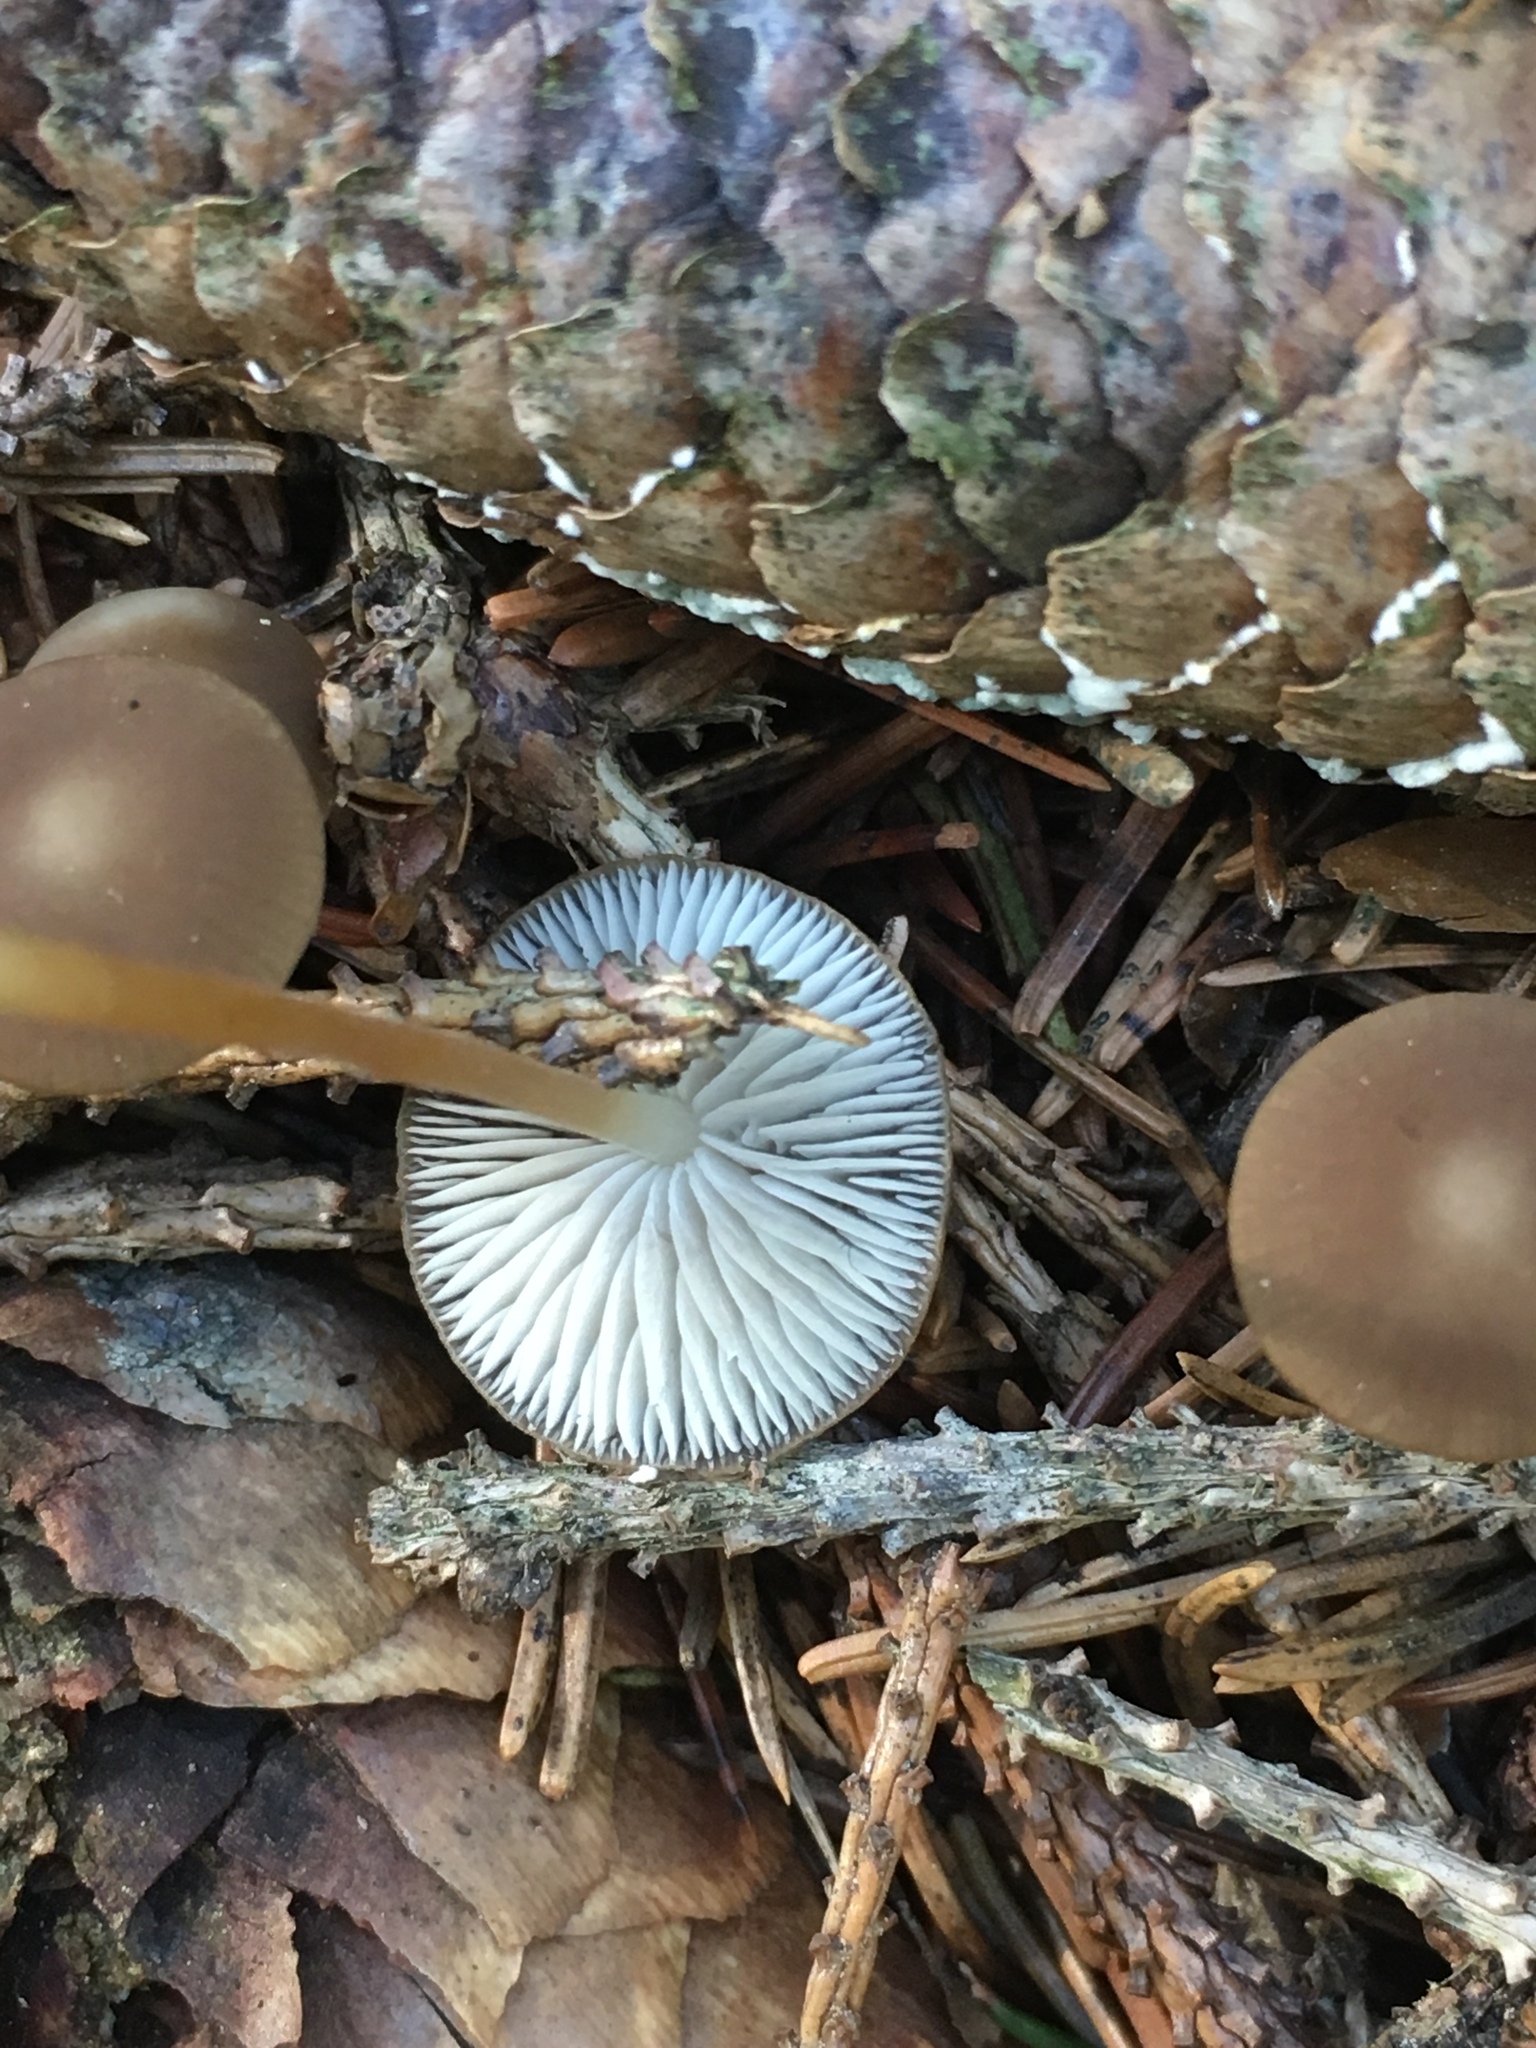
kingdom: Fungi
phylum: Basidiomycota
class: Agaricomycetes
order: Agaricales
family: Physalacriaceae
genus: Strobilurus
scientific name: Strobilurus esculentus
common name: Sprucecone cap
